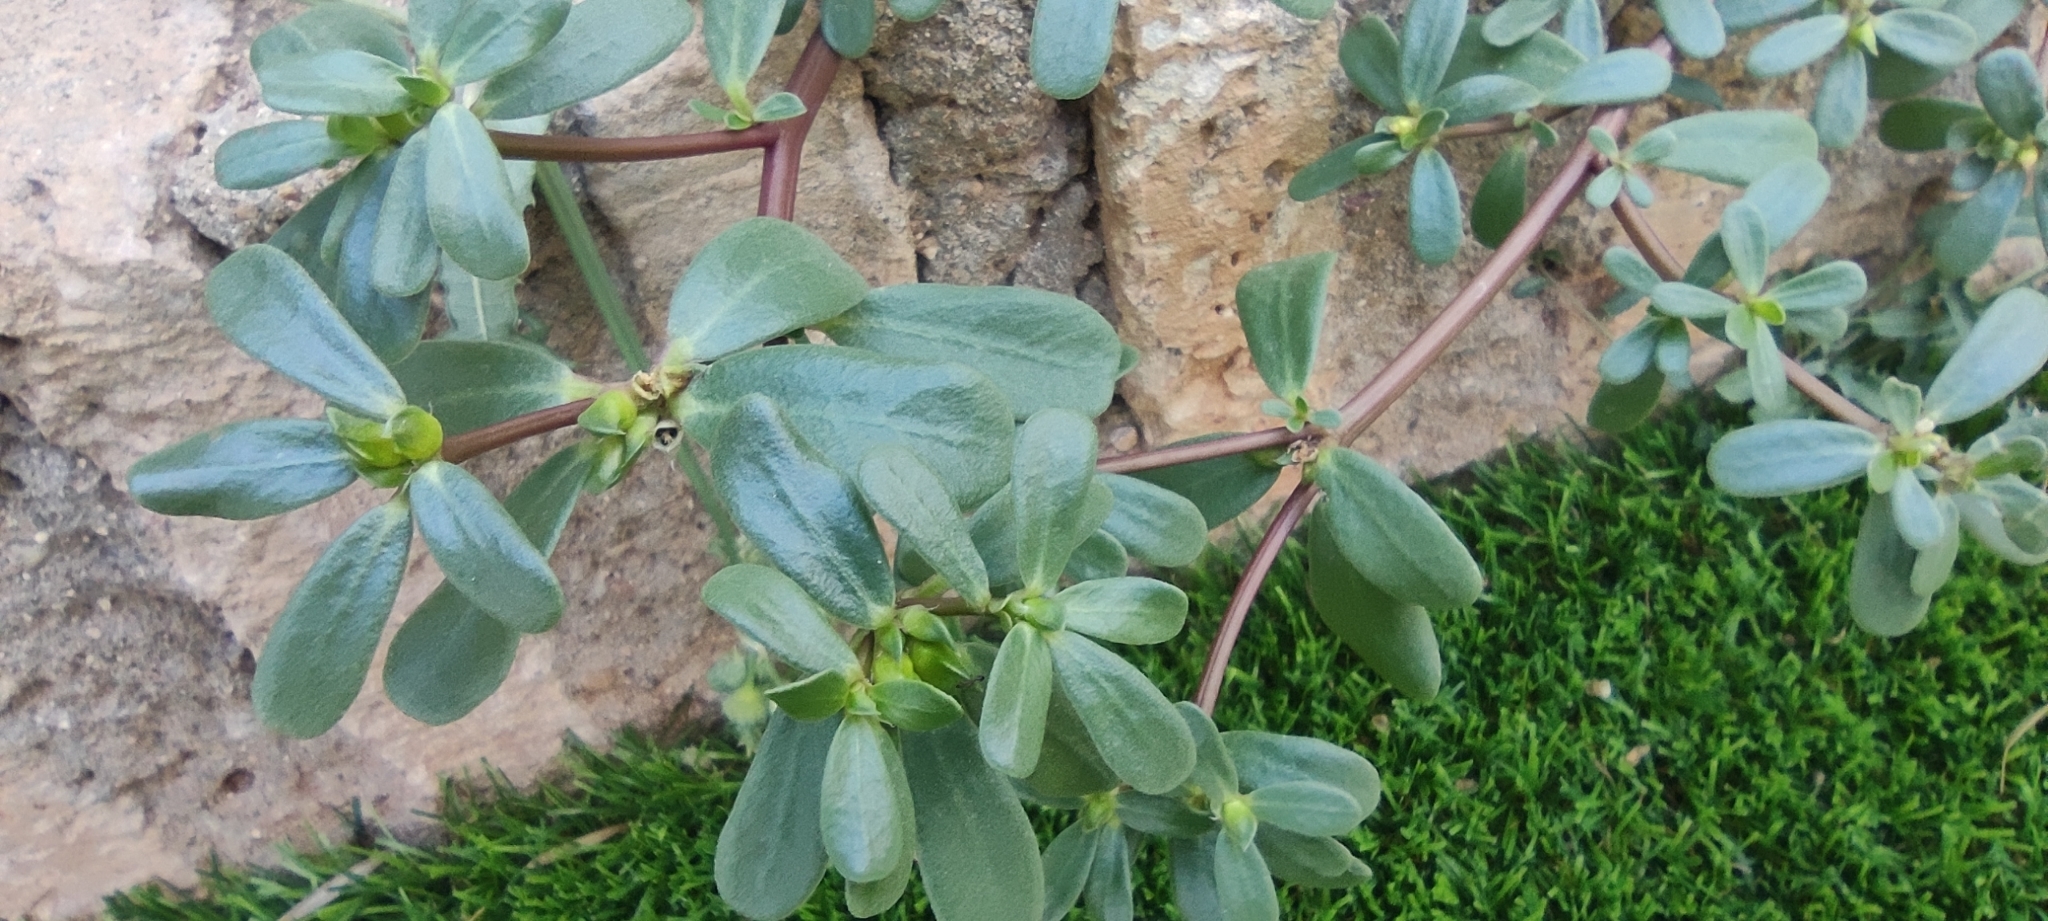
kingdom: Plantae
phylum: Tracheophyta
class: Magnoliopsida
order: Caryophyllales
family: Portulacaceae
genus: Portulaca
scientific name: Portulaca oleracea
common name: Common purslane
